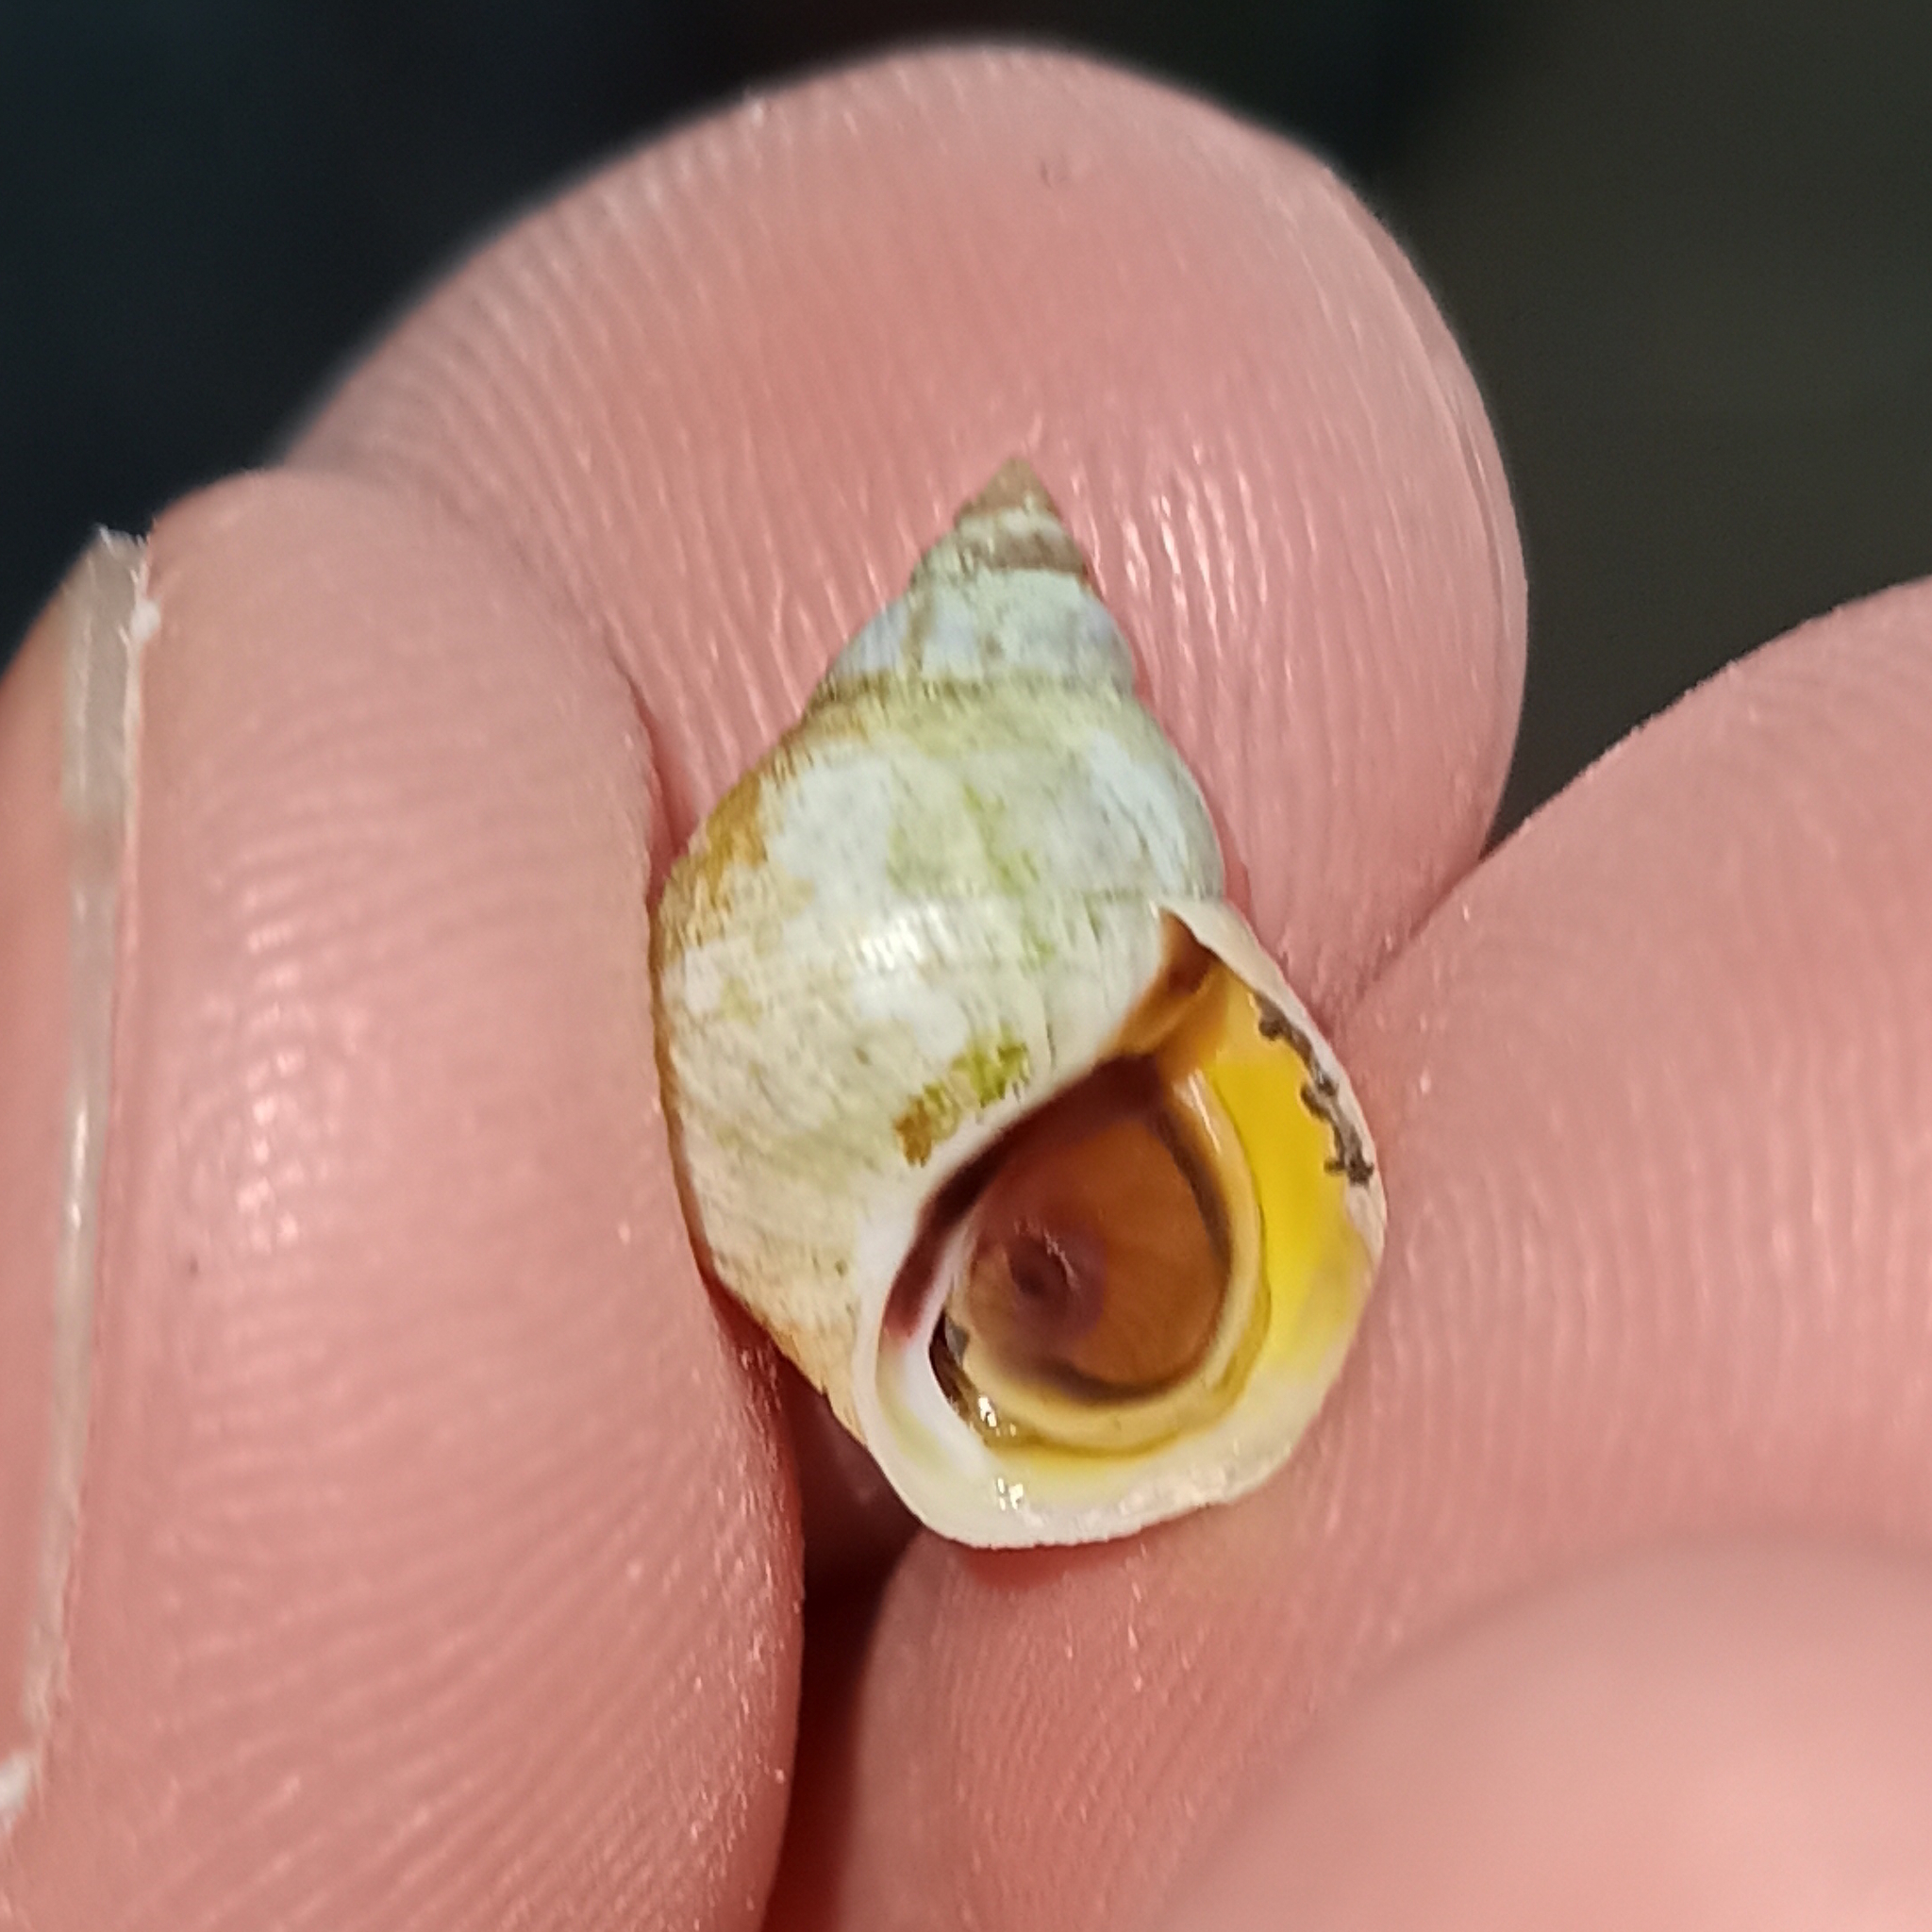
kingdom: Animalia
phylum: Mollusca
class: Gastropoda
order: Littorinimorpha
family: Littorinidae
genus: Littoraria
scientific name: Littoraria flava
